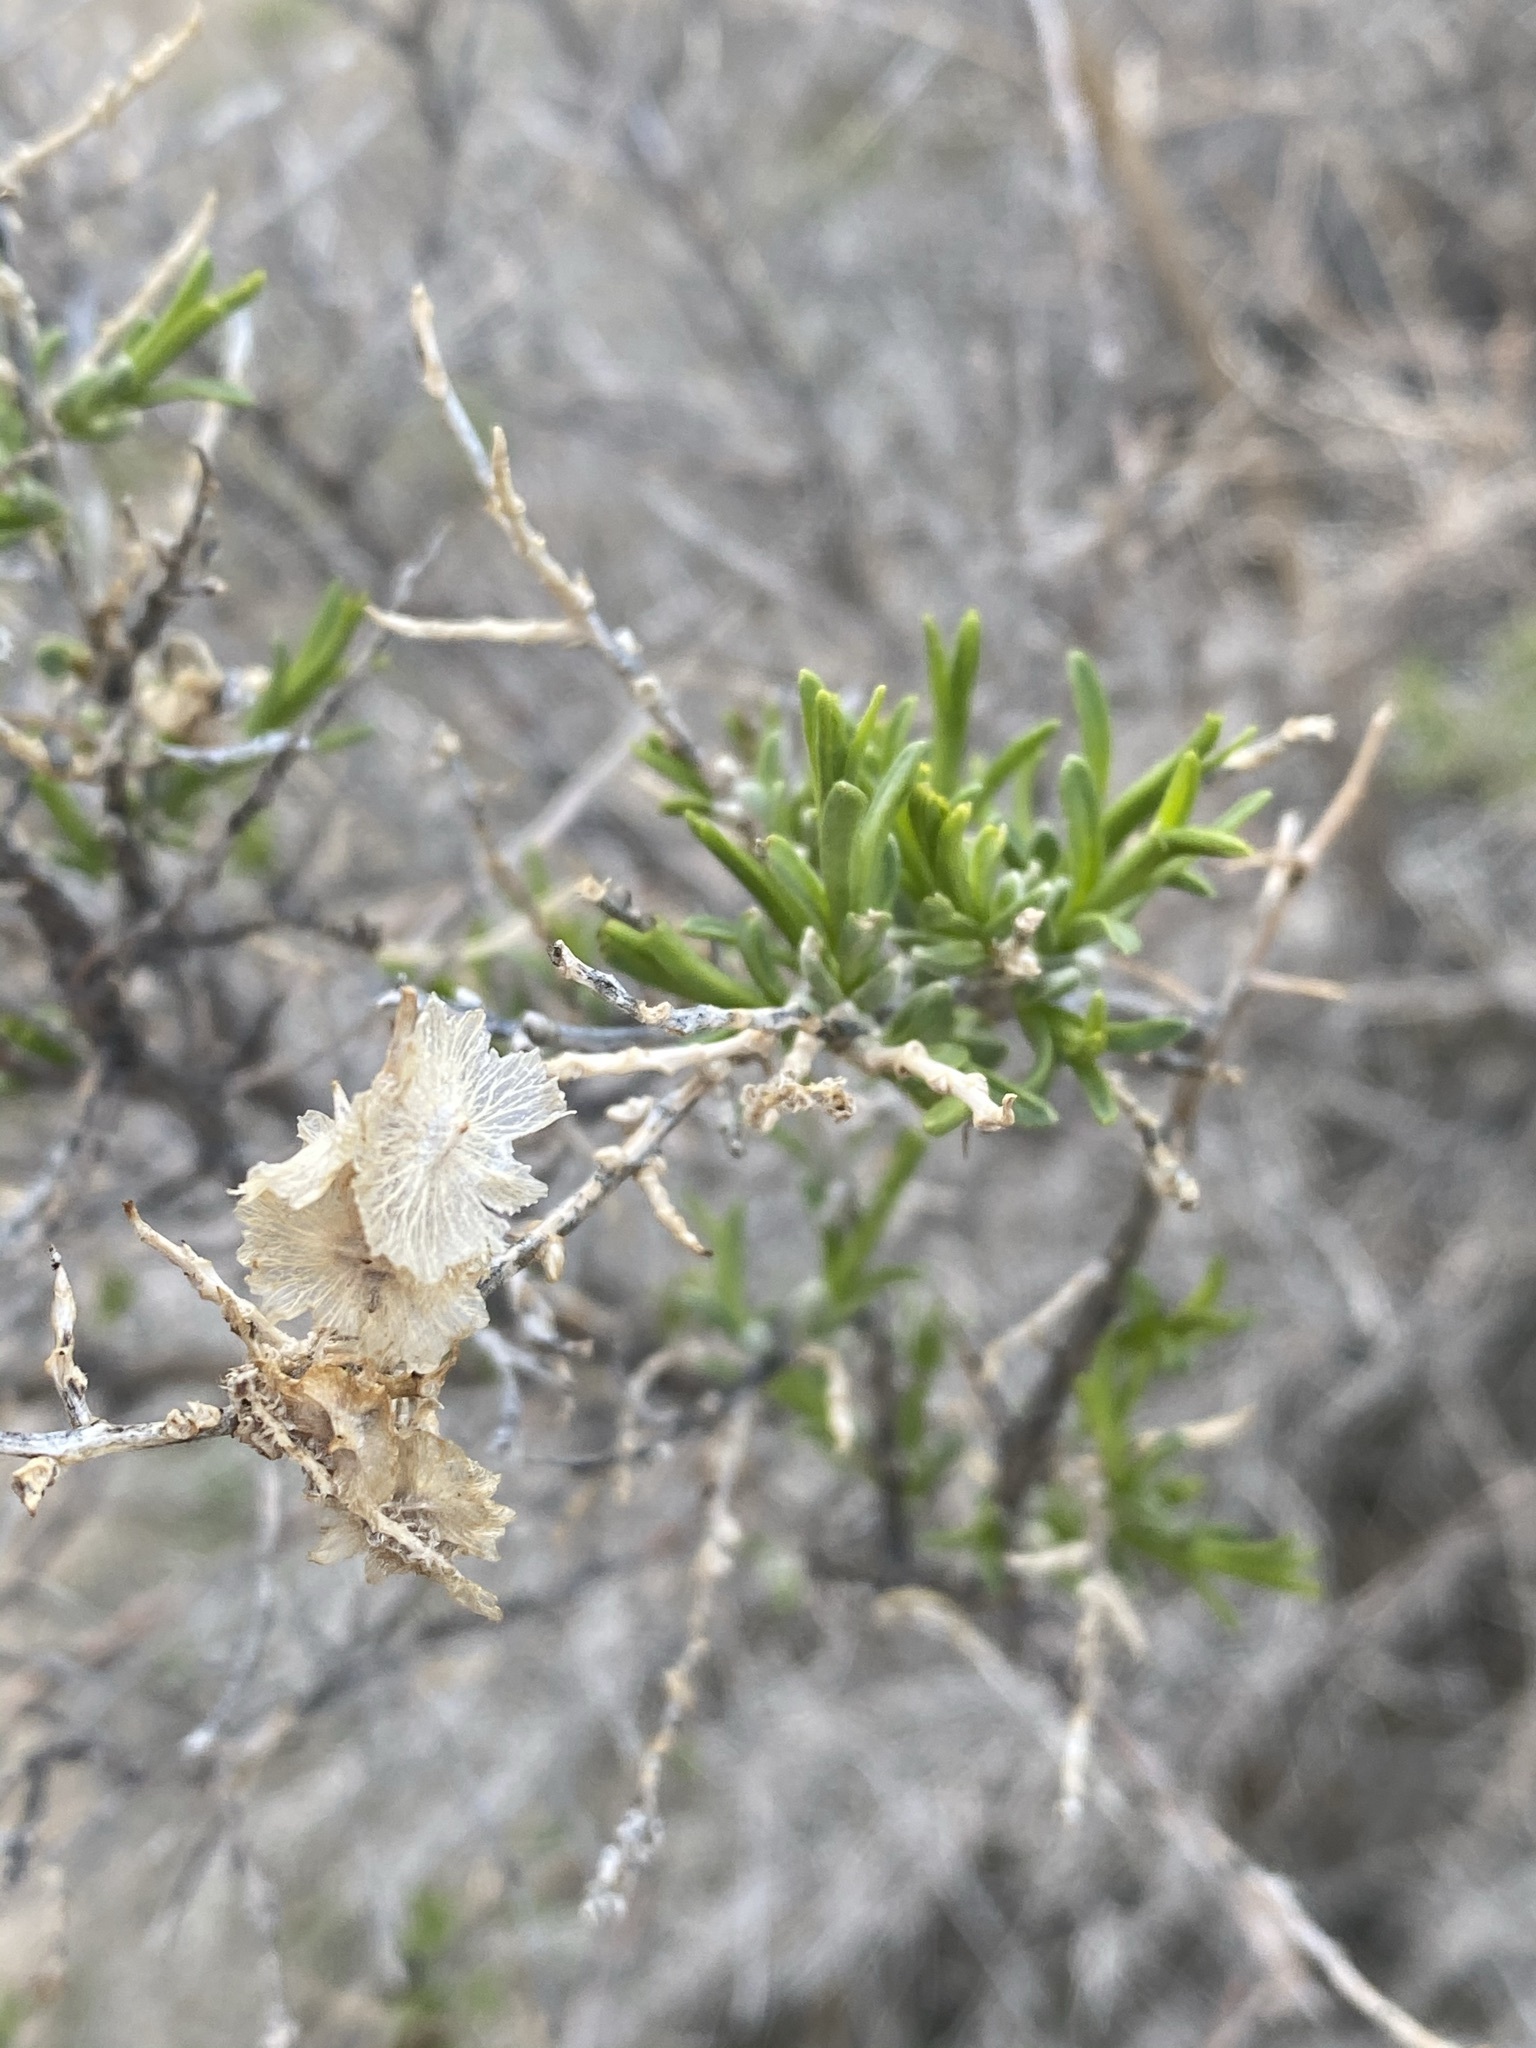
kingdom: Plantae
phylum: Tracheophyta
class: Magnoliopsida
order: Caryophyllales
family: Sarcobataceae
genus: Sarcobatus
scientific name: Sarcobatus vermiculatus
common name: Greasewood
